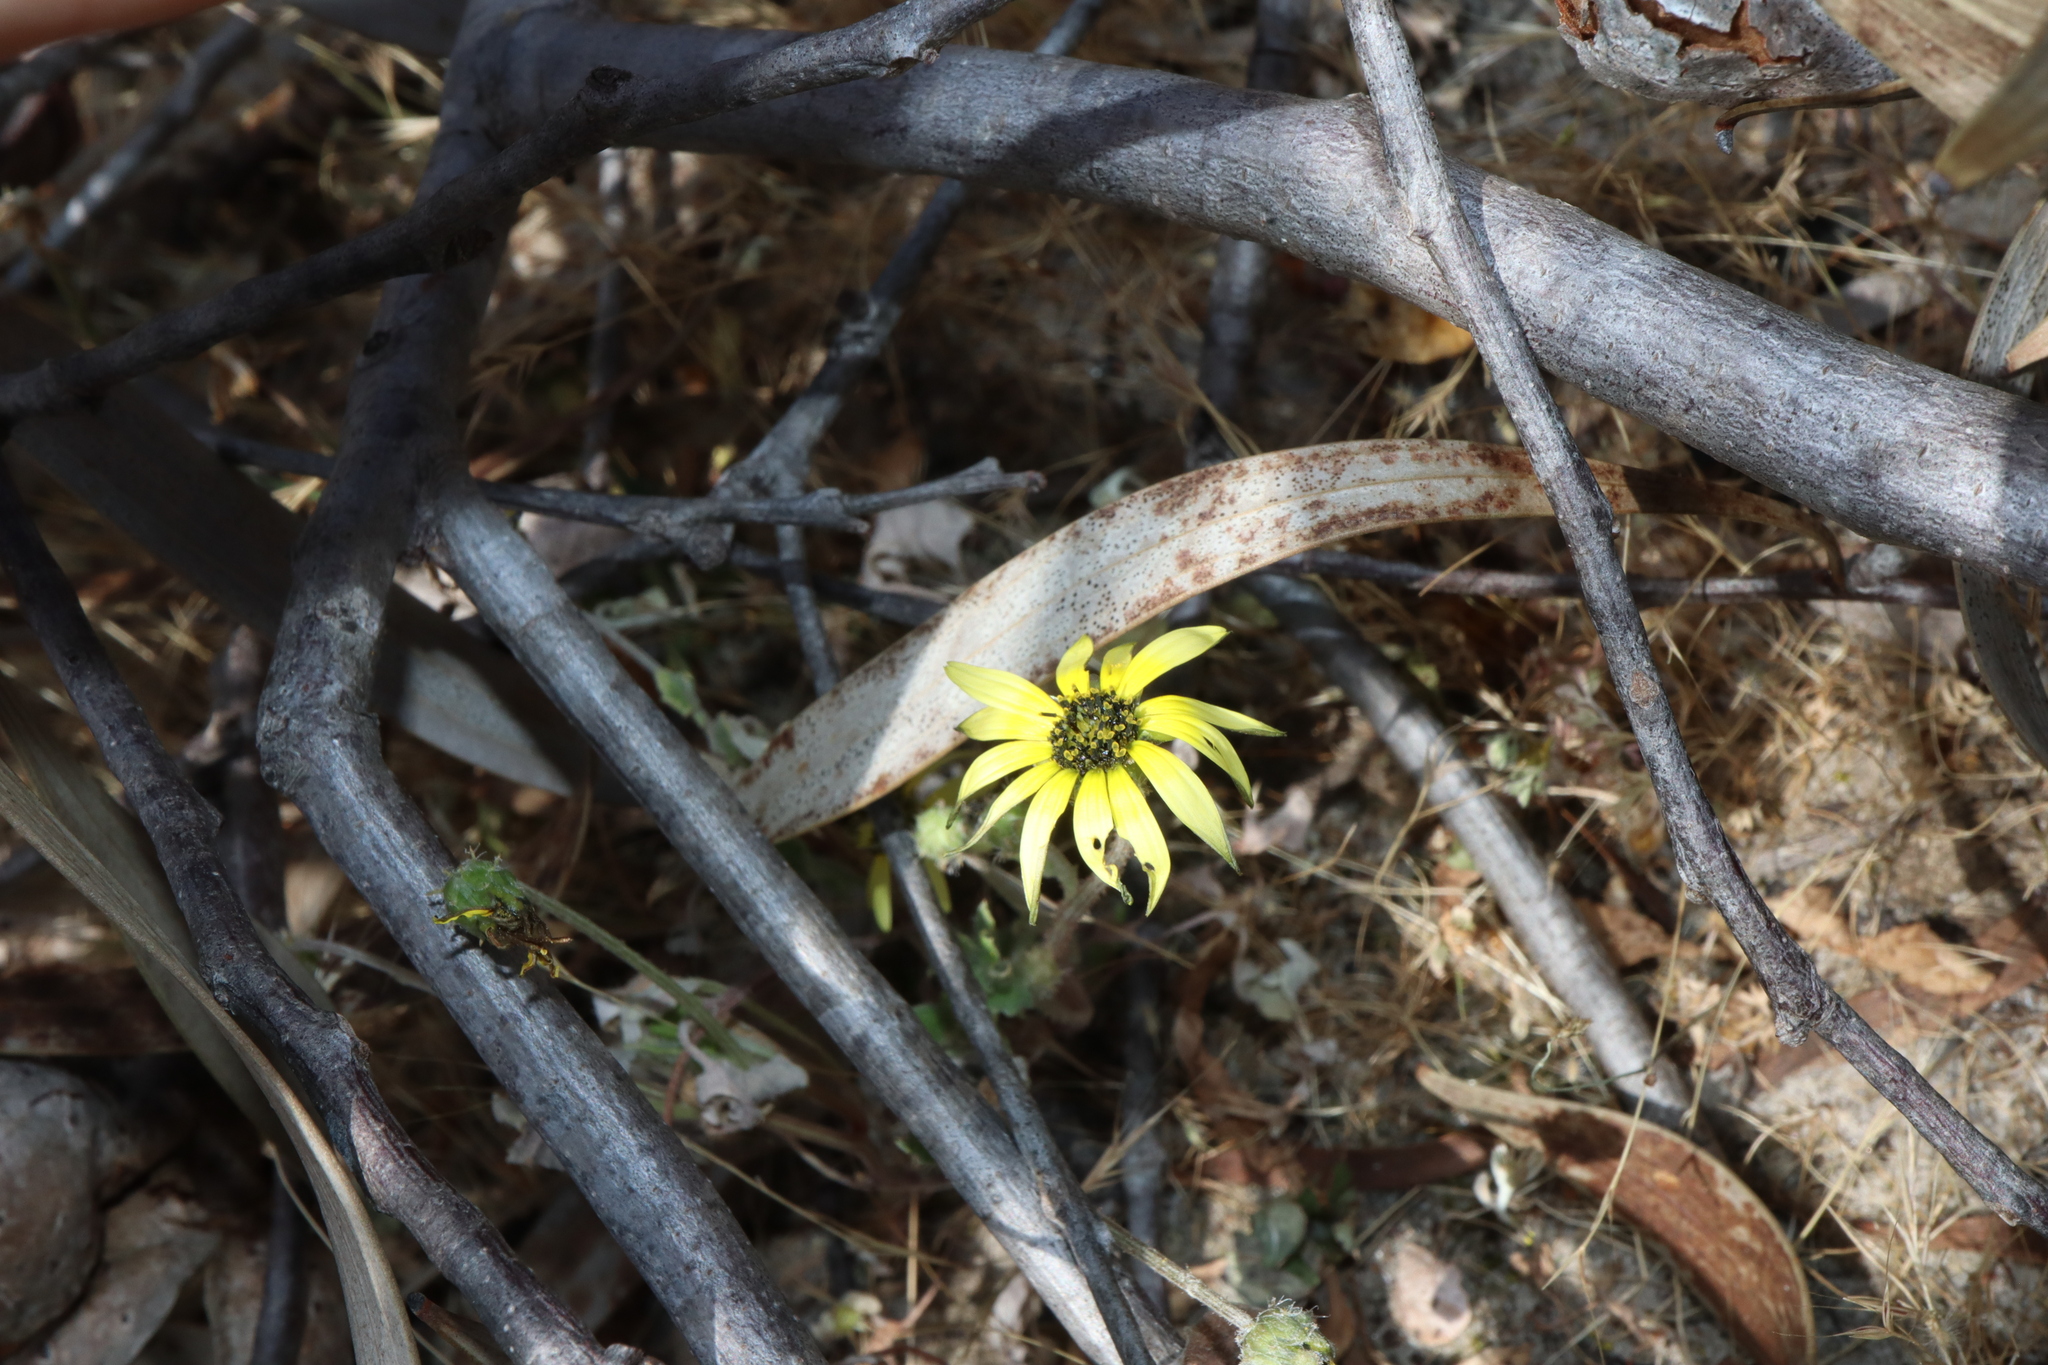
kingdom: Plantae
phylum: Tracheophyta
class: Magnoliopsida
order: Asterales
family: Asteraceae
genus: Arctotheca
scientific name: Arctotheca calendula
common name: Capeweed
